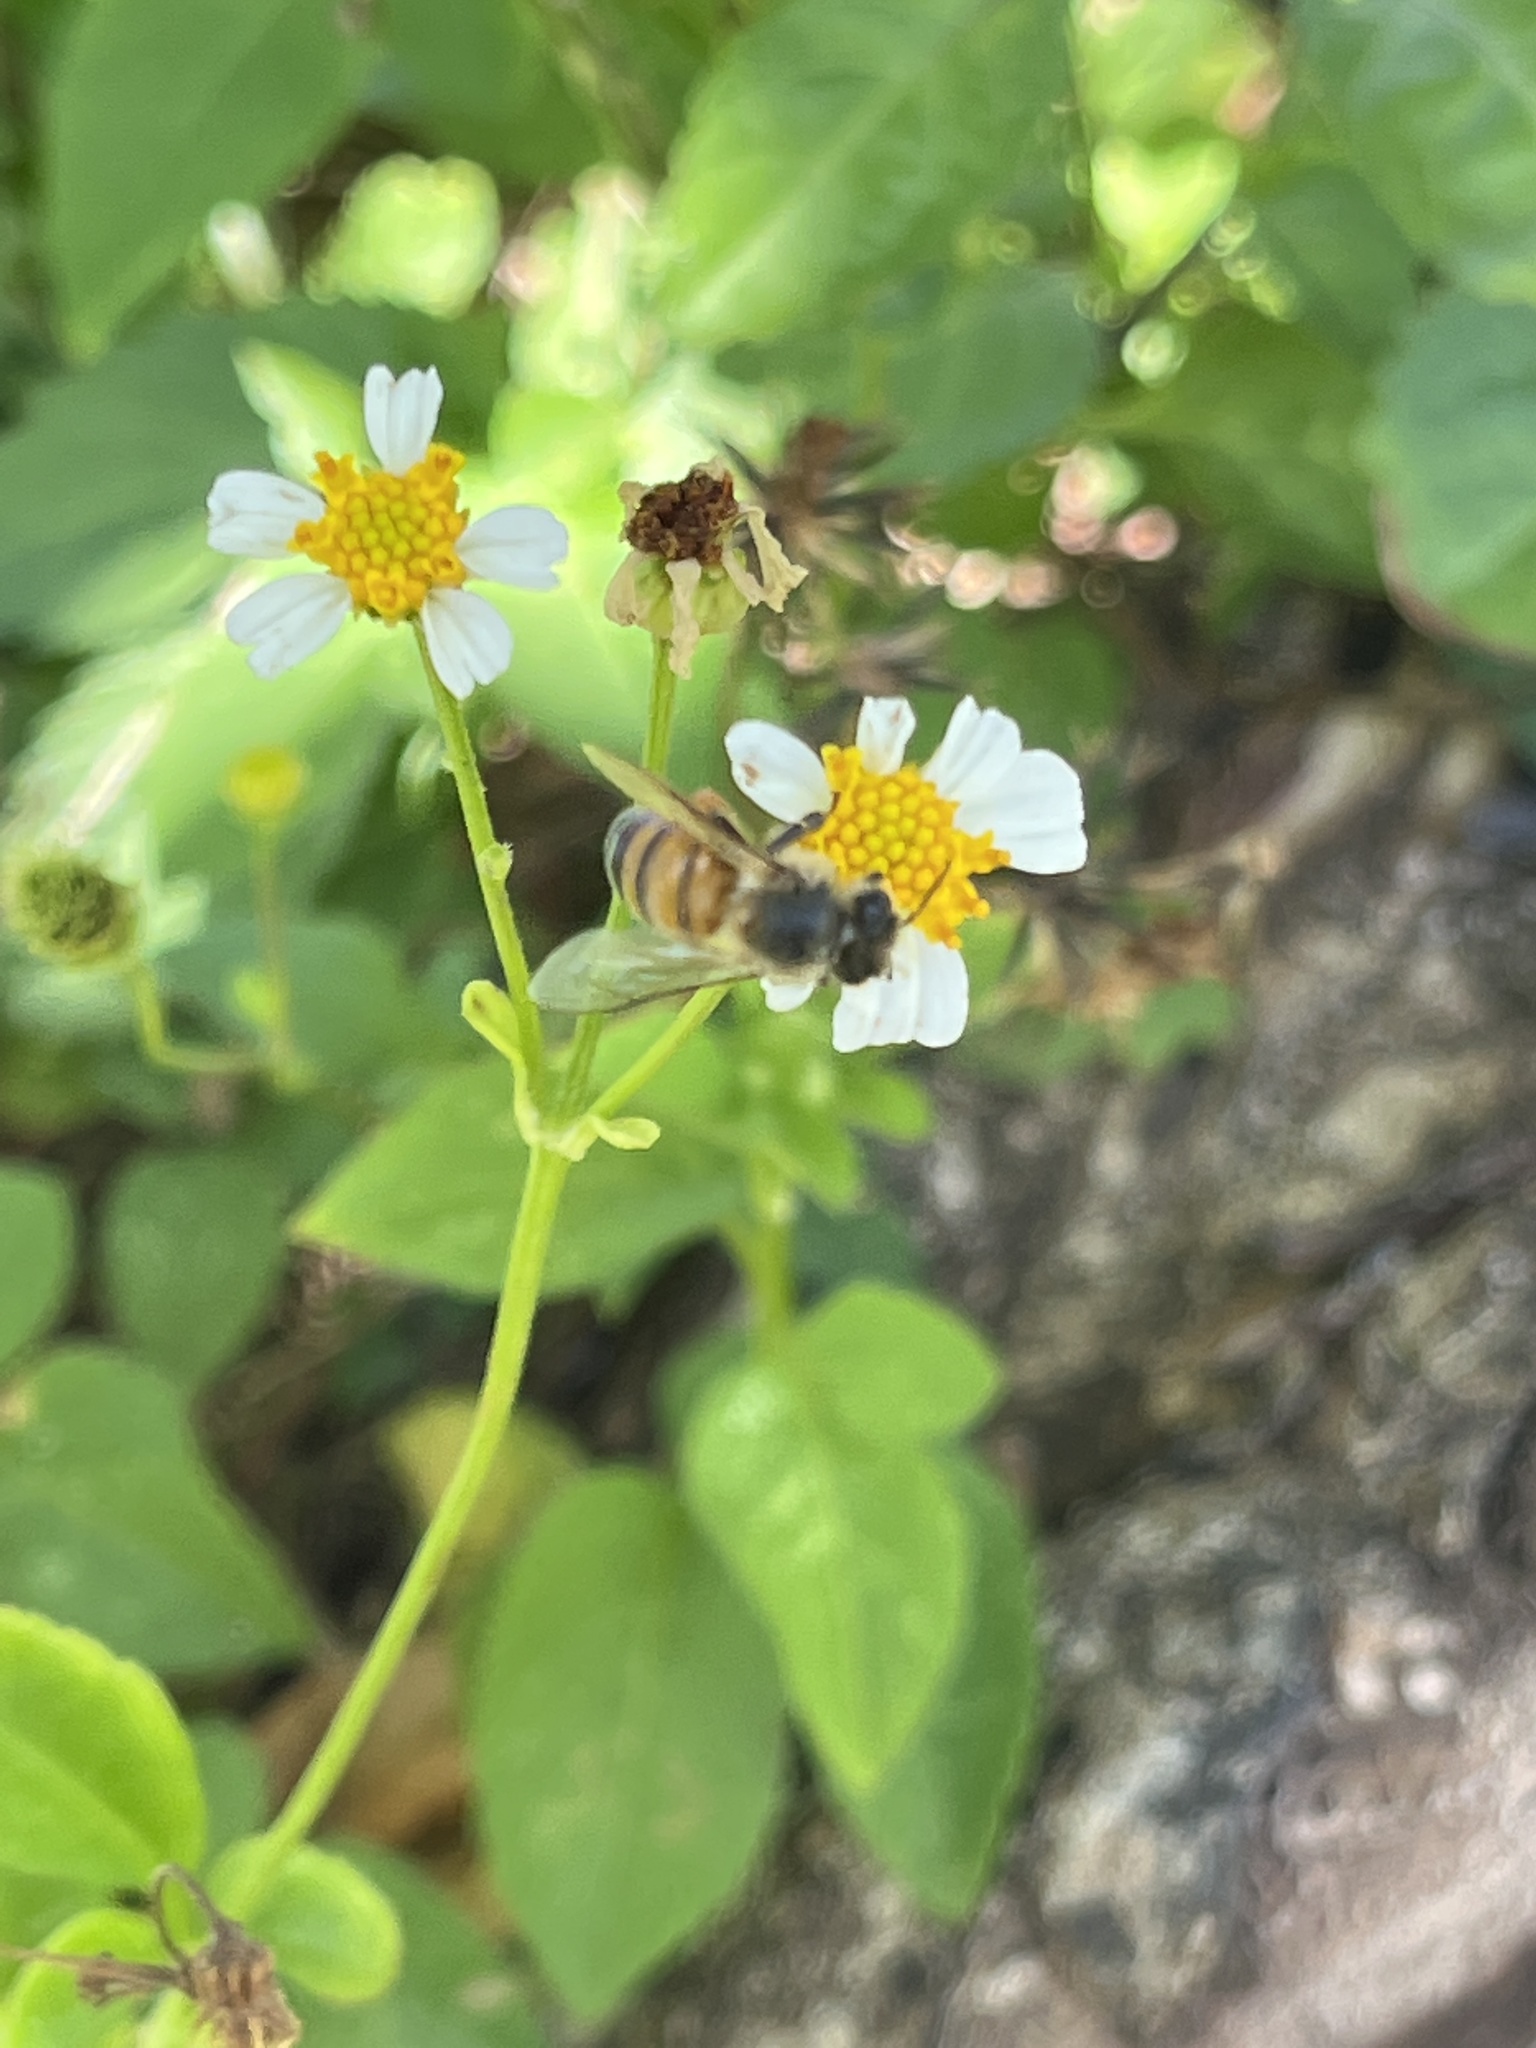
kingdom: Animalia
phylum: Arthropoda
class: Insecta
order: Hymenoptera
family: Apidae
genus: Apis
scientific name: Apis mellifera
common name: Honey bee
